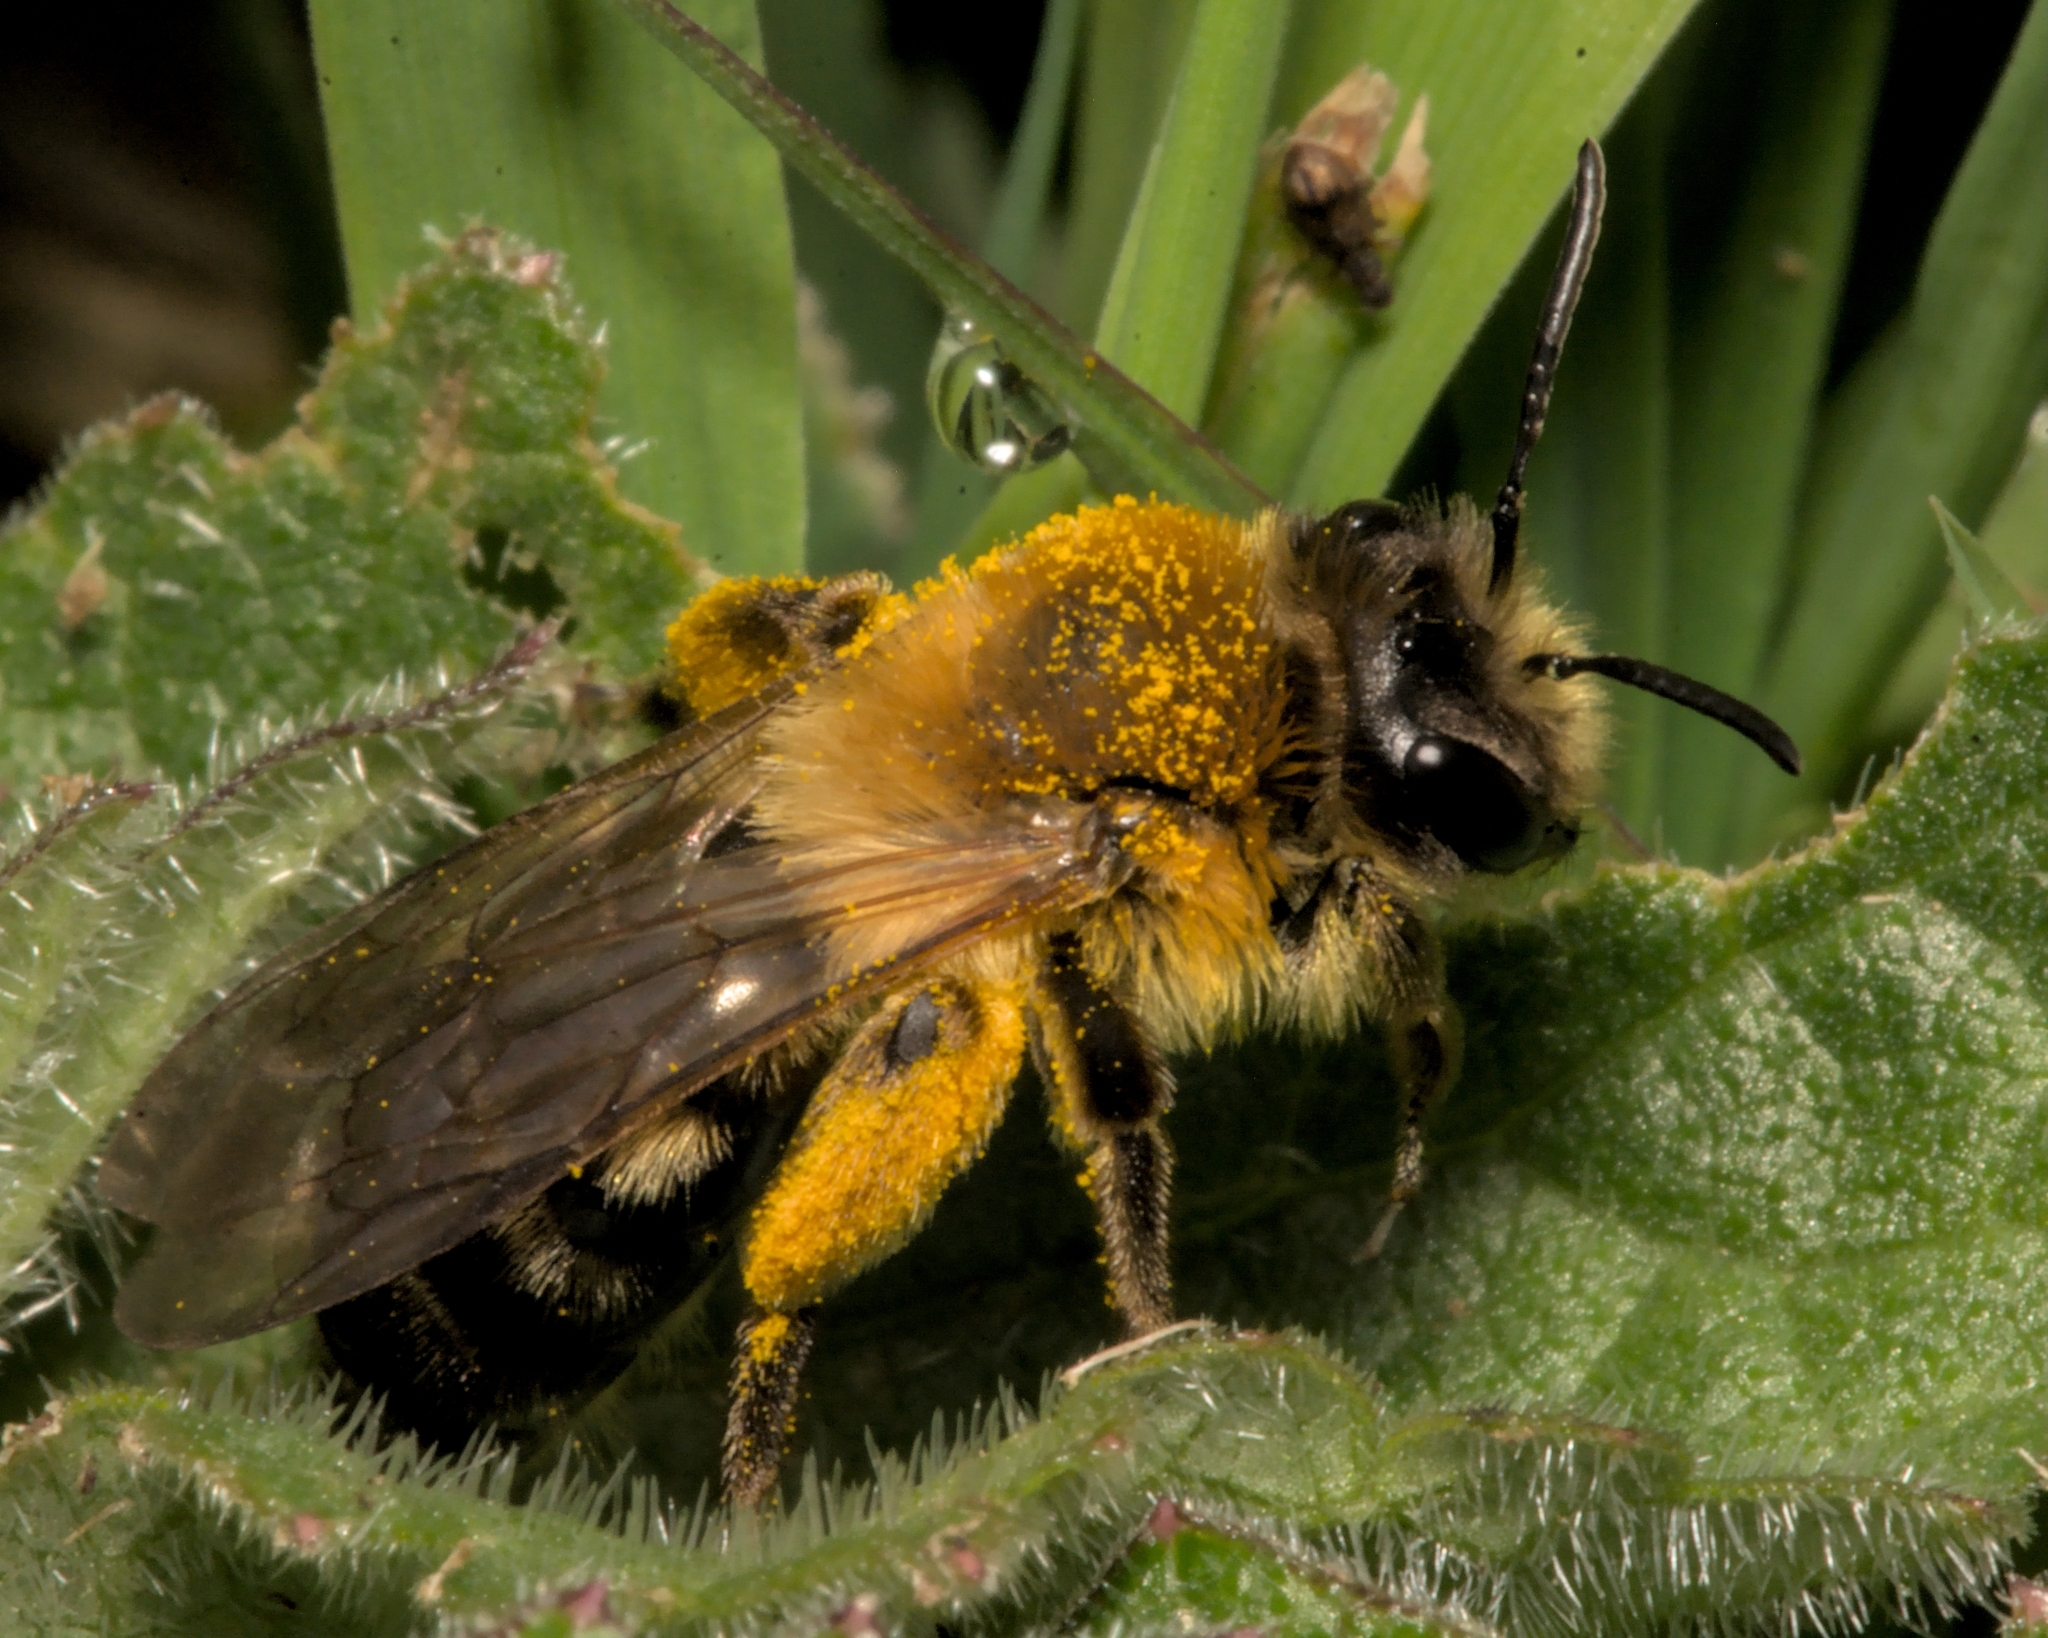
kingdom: Animalia
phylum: Arthropoda
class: Insecta
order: Hymenoptera
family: Andrenidae
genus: Andrena
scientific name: Andrena nitida
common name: Grey-patched mining bee
